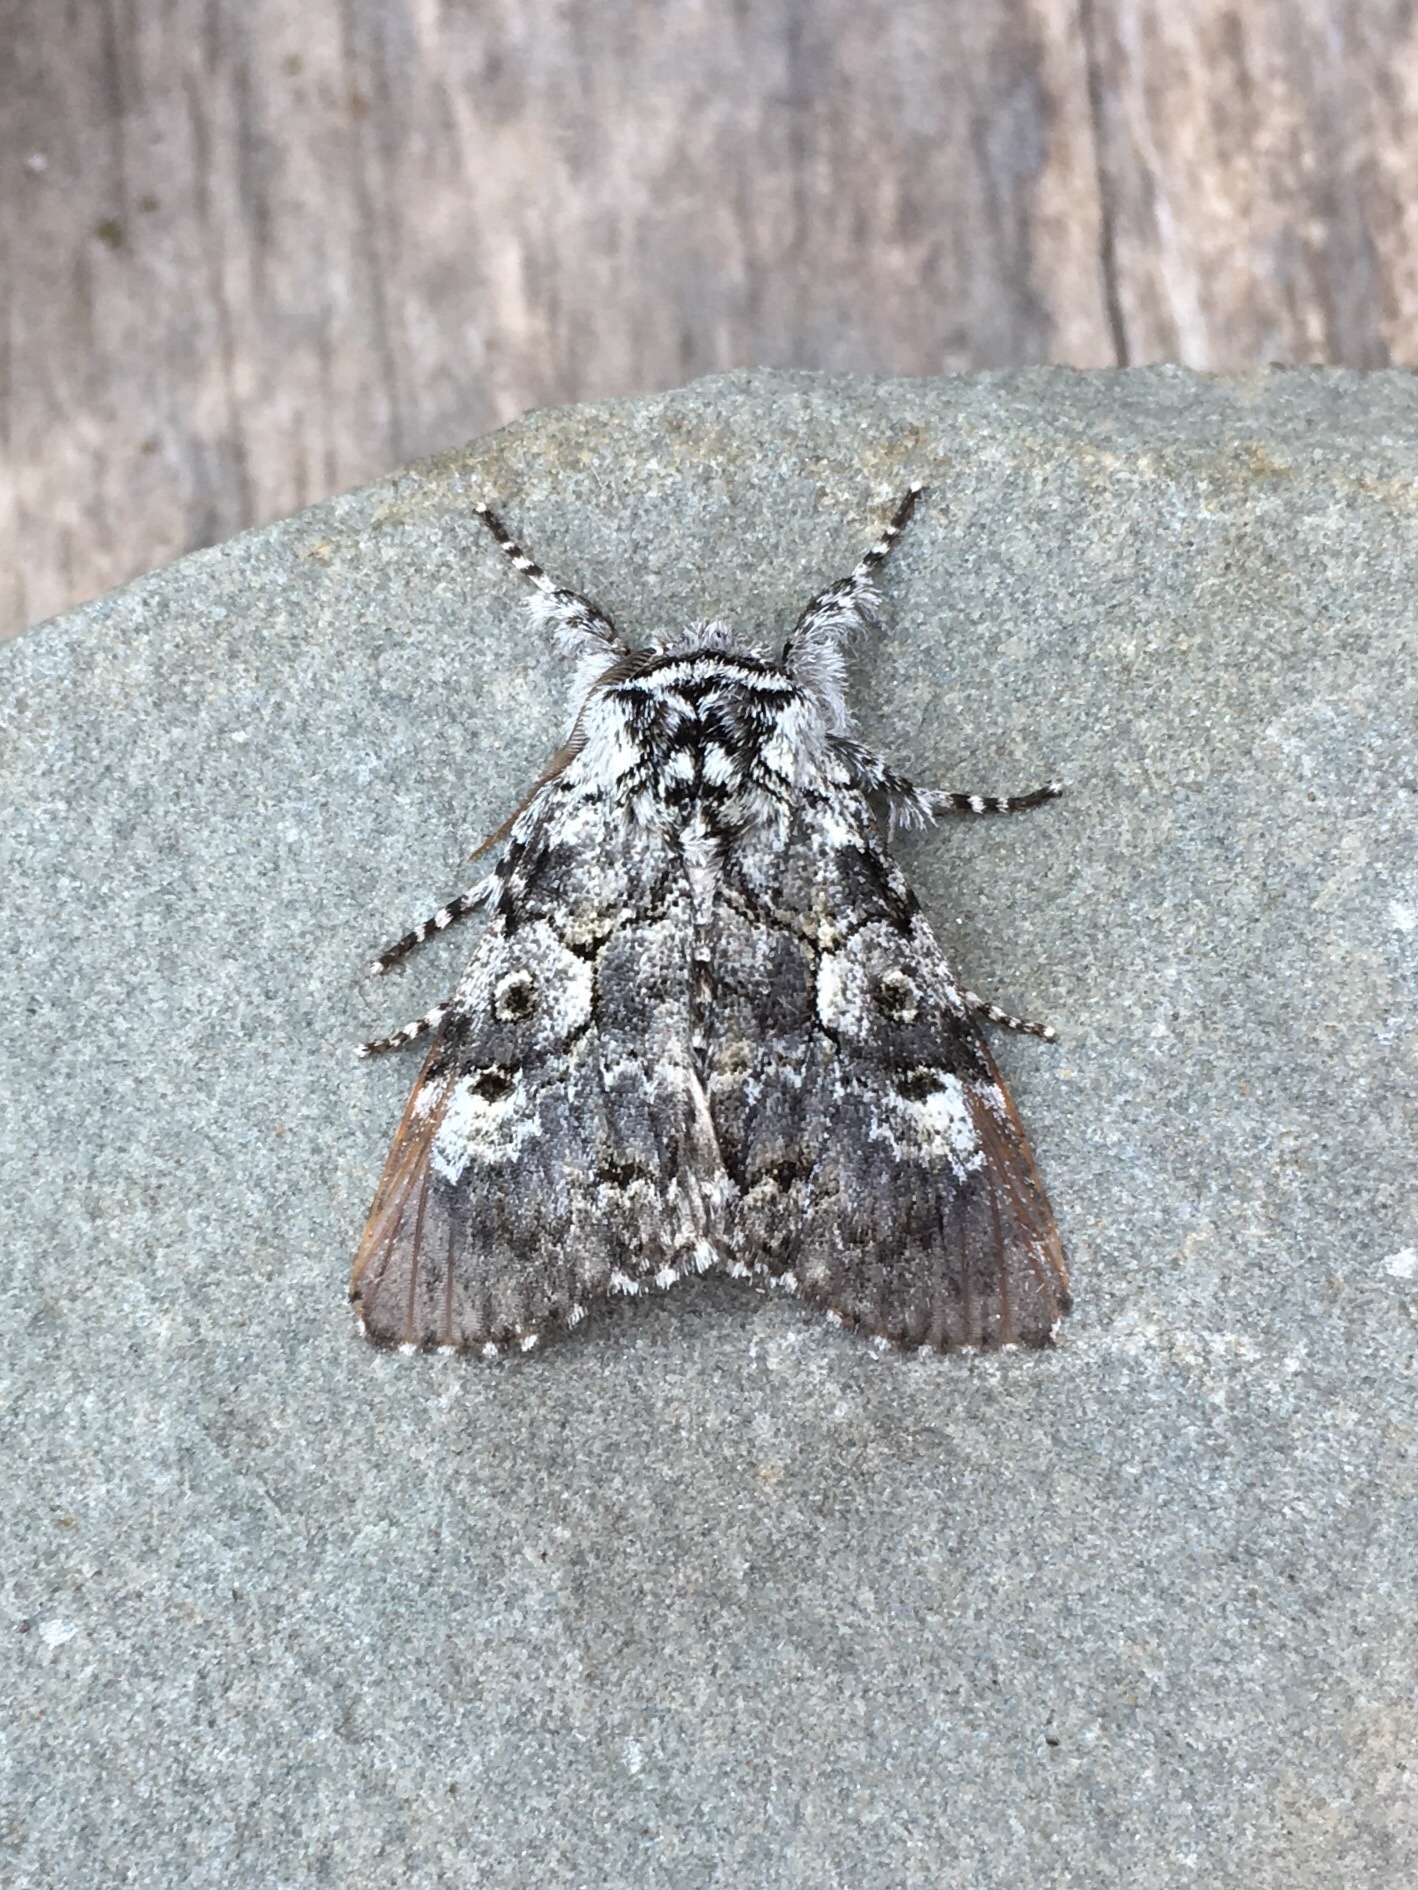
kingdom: Animalia
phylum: Arthropoda
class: Insecta
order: Lepidoptera
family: Noctuidae
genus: Charadra
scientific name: Charadra deridens
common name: Marbled tuffet
